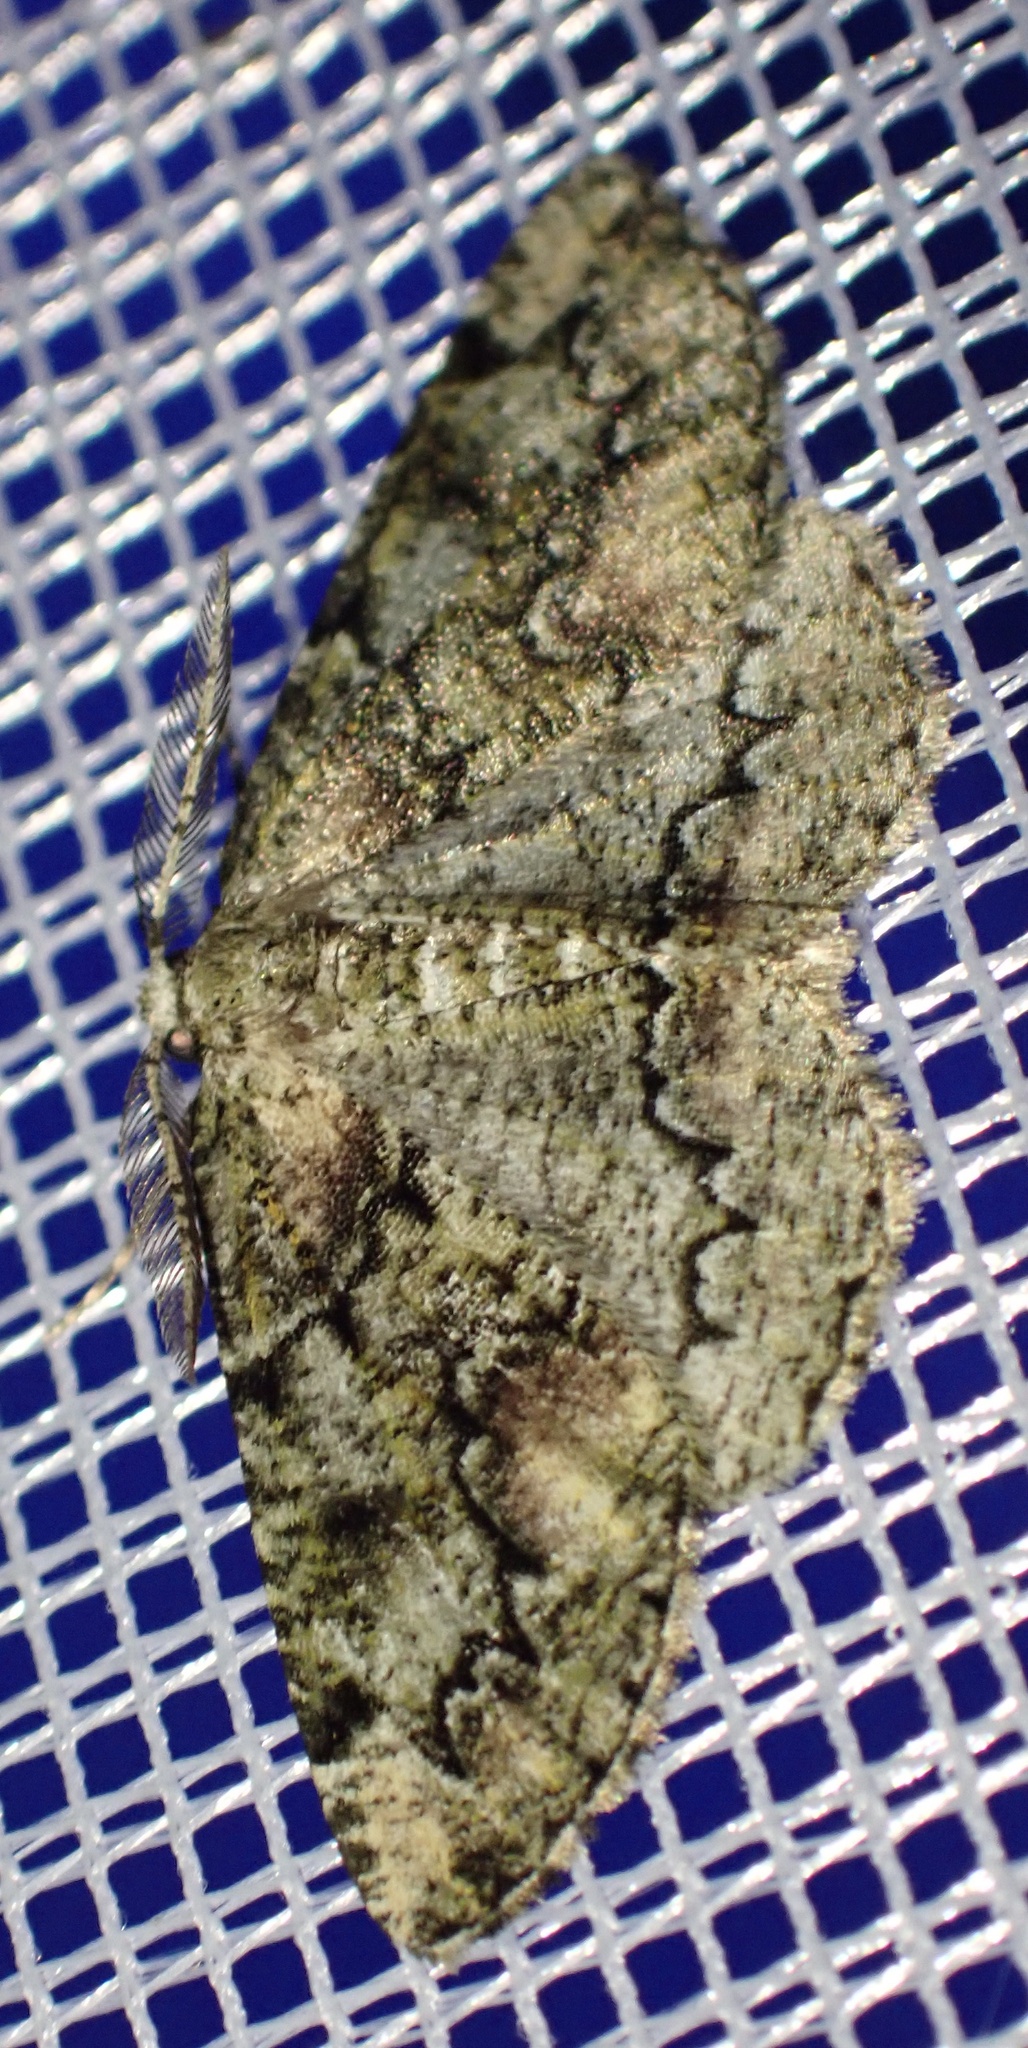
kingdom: Animalia
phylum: Arthropoda
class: Insecta
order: Lepidoptera
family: Geometridae
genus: Cleorodes
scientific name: Cleorodes lichenaria
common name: Brussels lace
